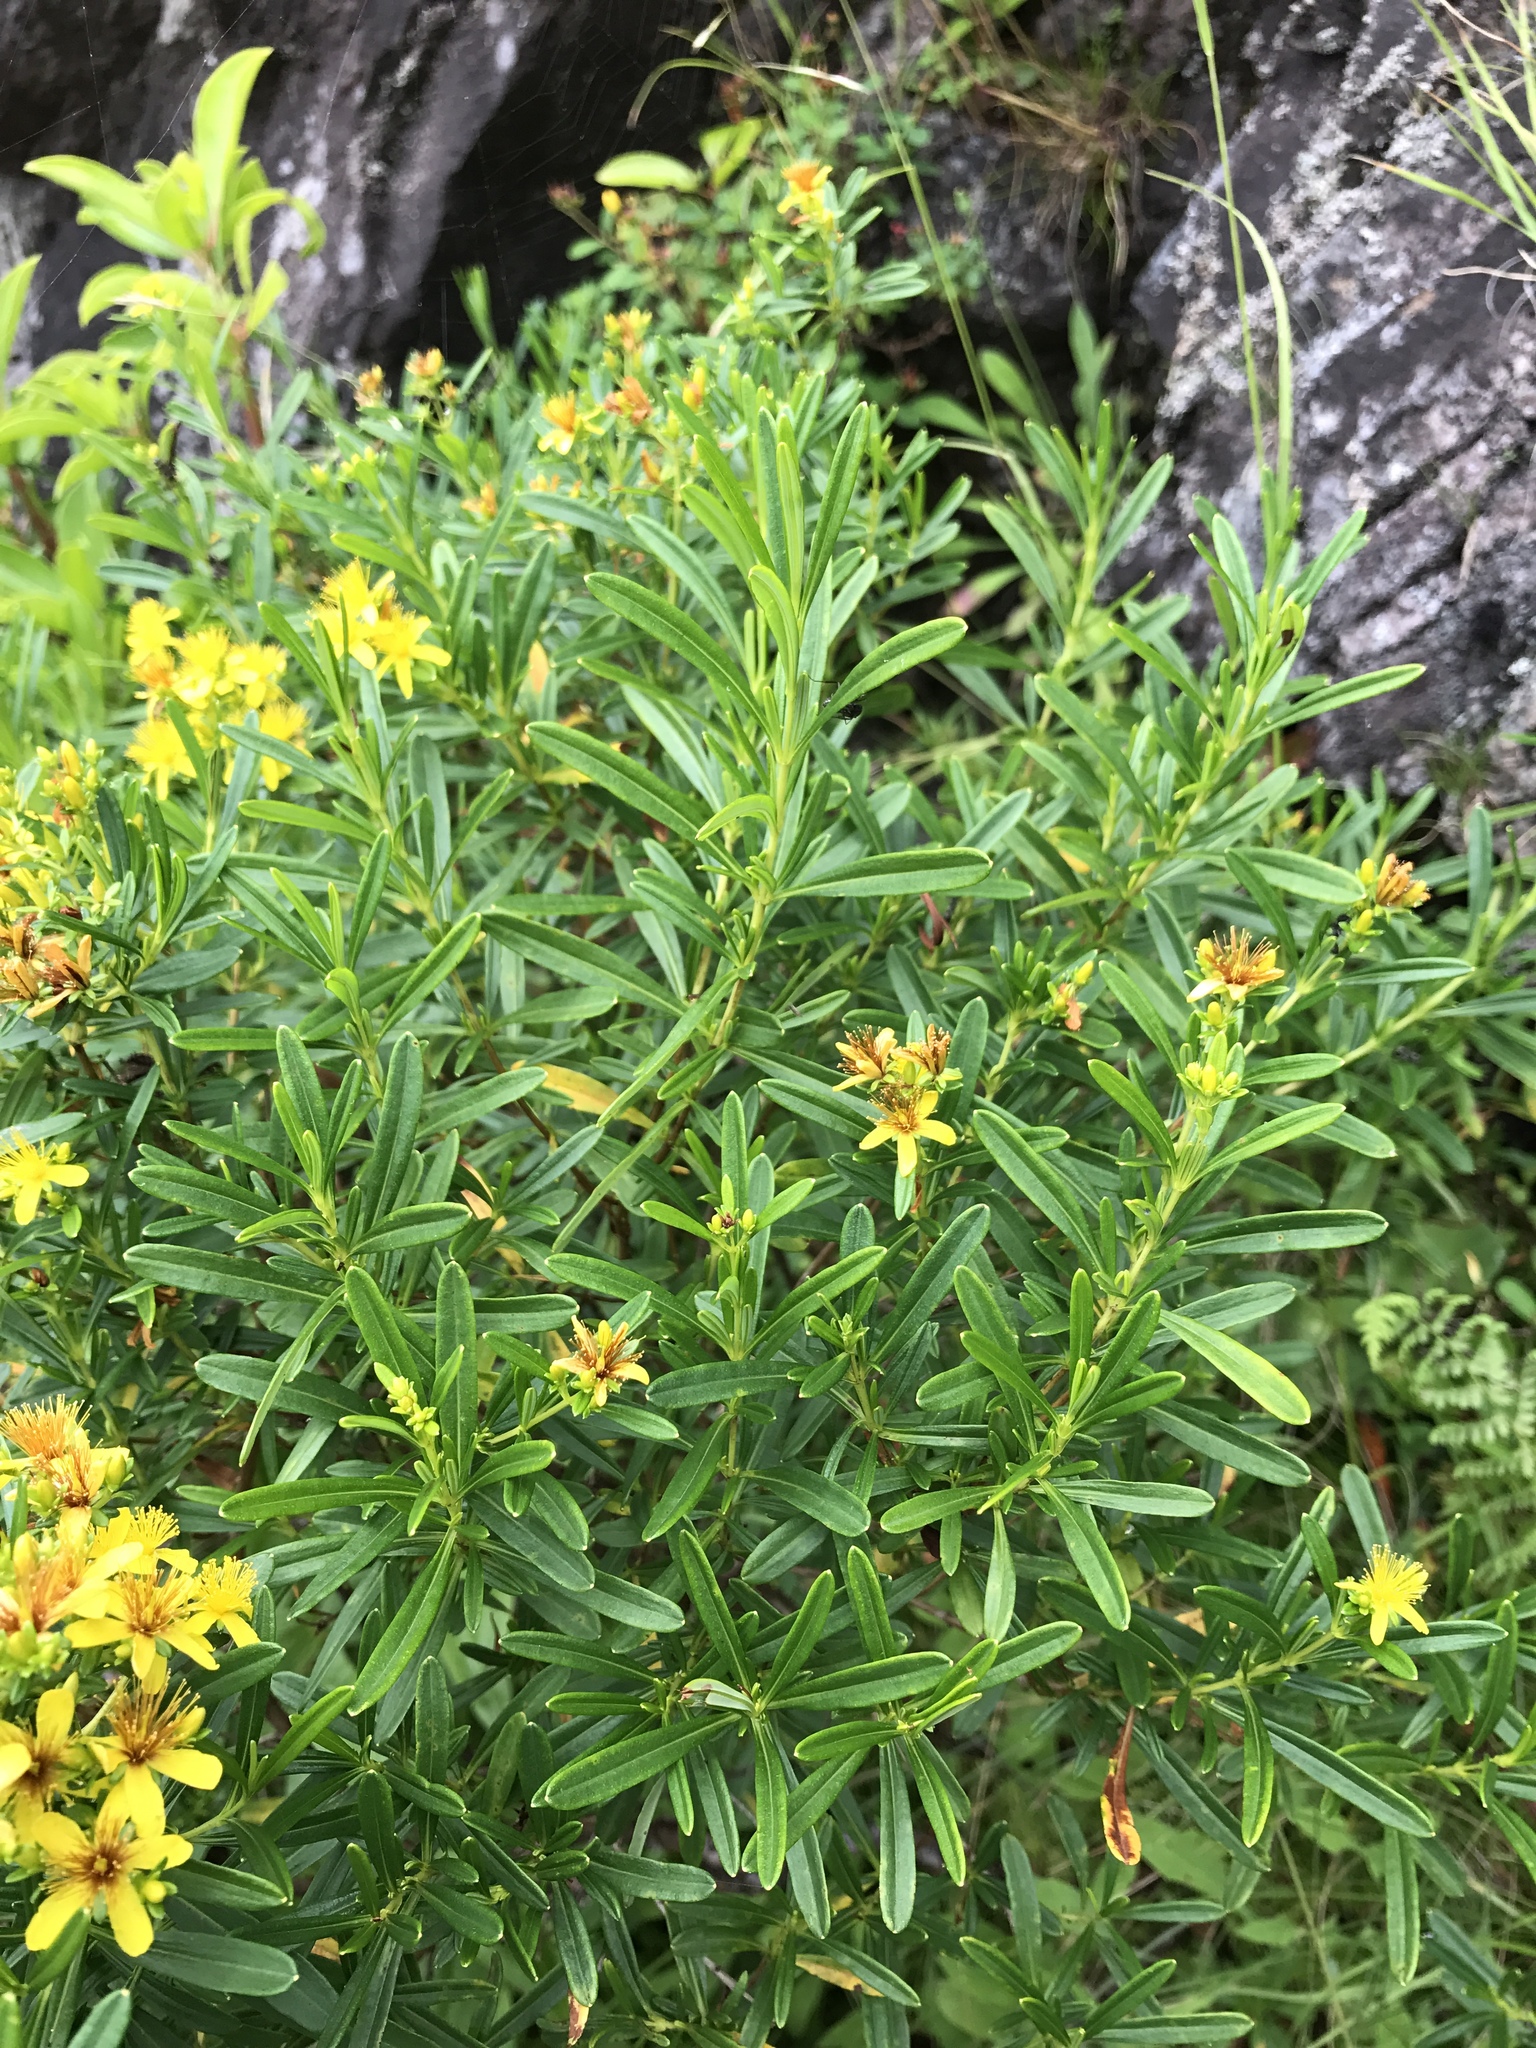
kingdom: Plantae
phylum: Tracheophyta
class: Magnoliopsida
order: Malpighiales
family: Hypericaceae
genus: Hypericum
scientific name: Hypericum densiflorum
